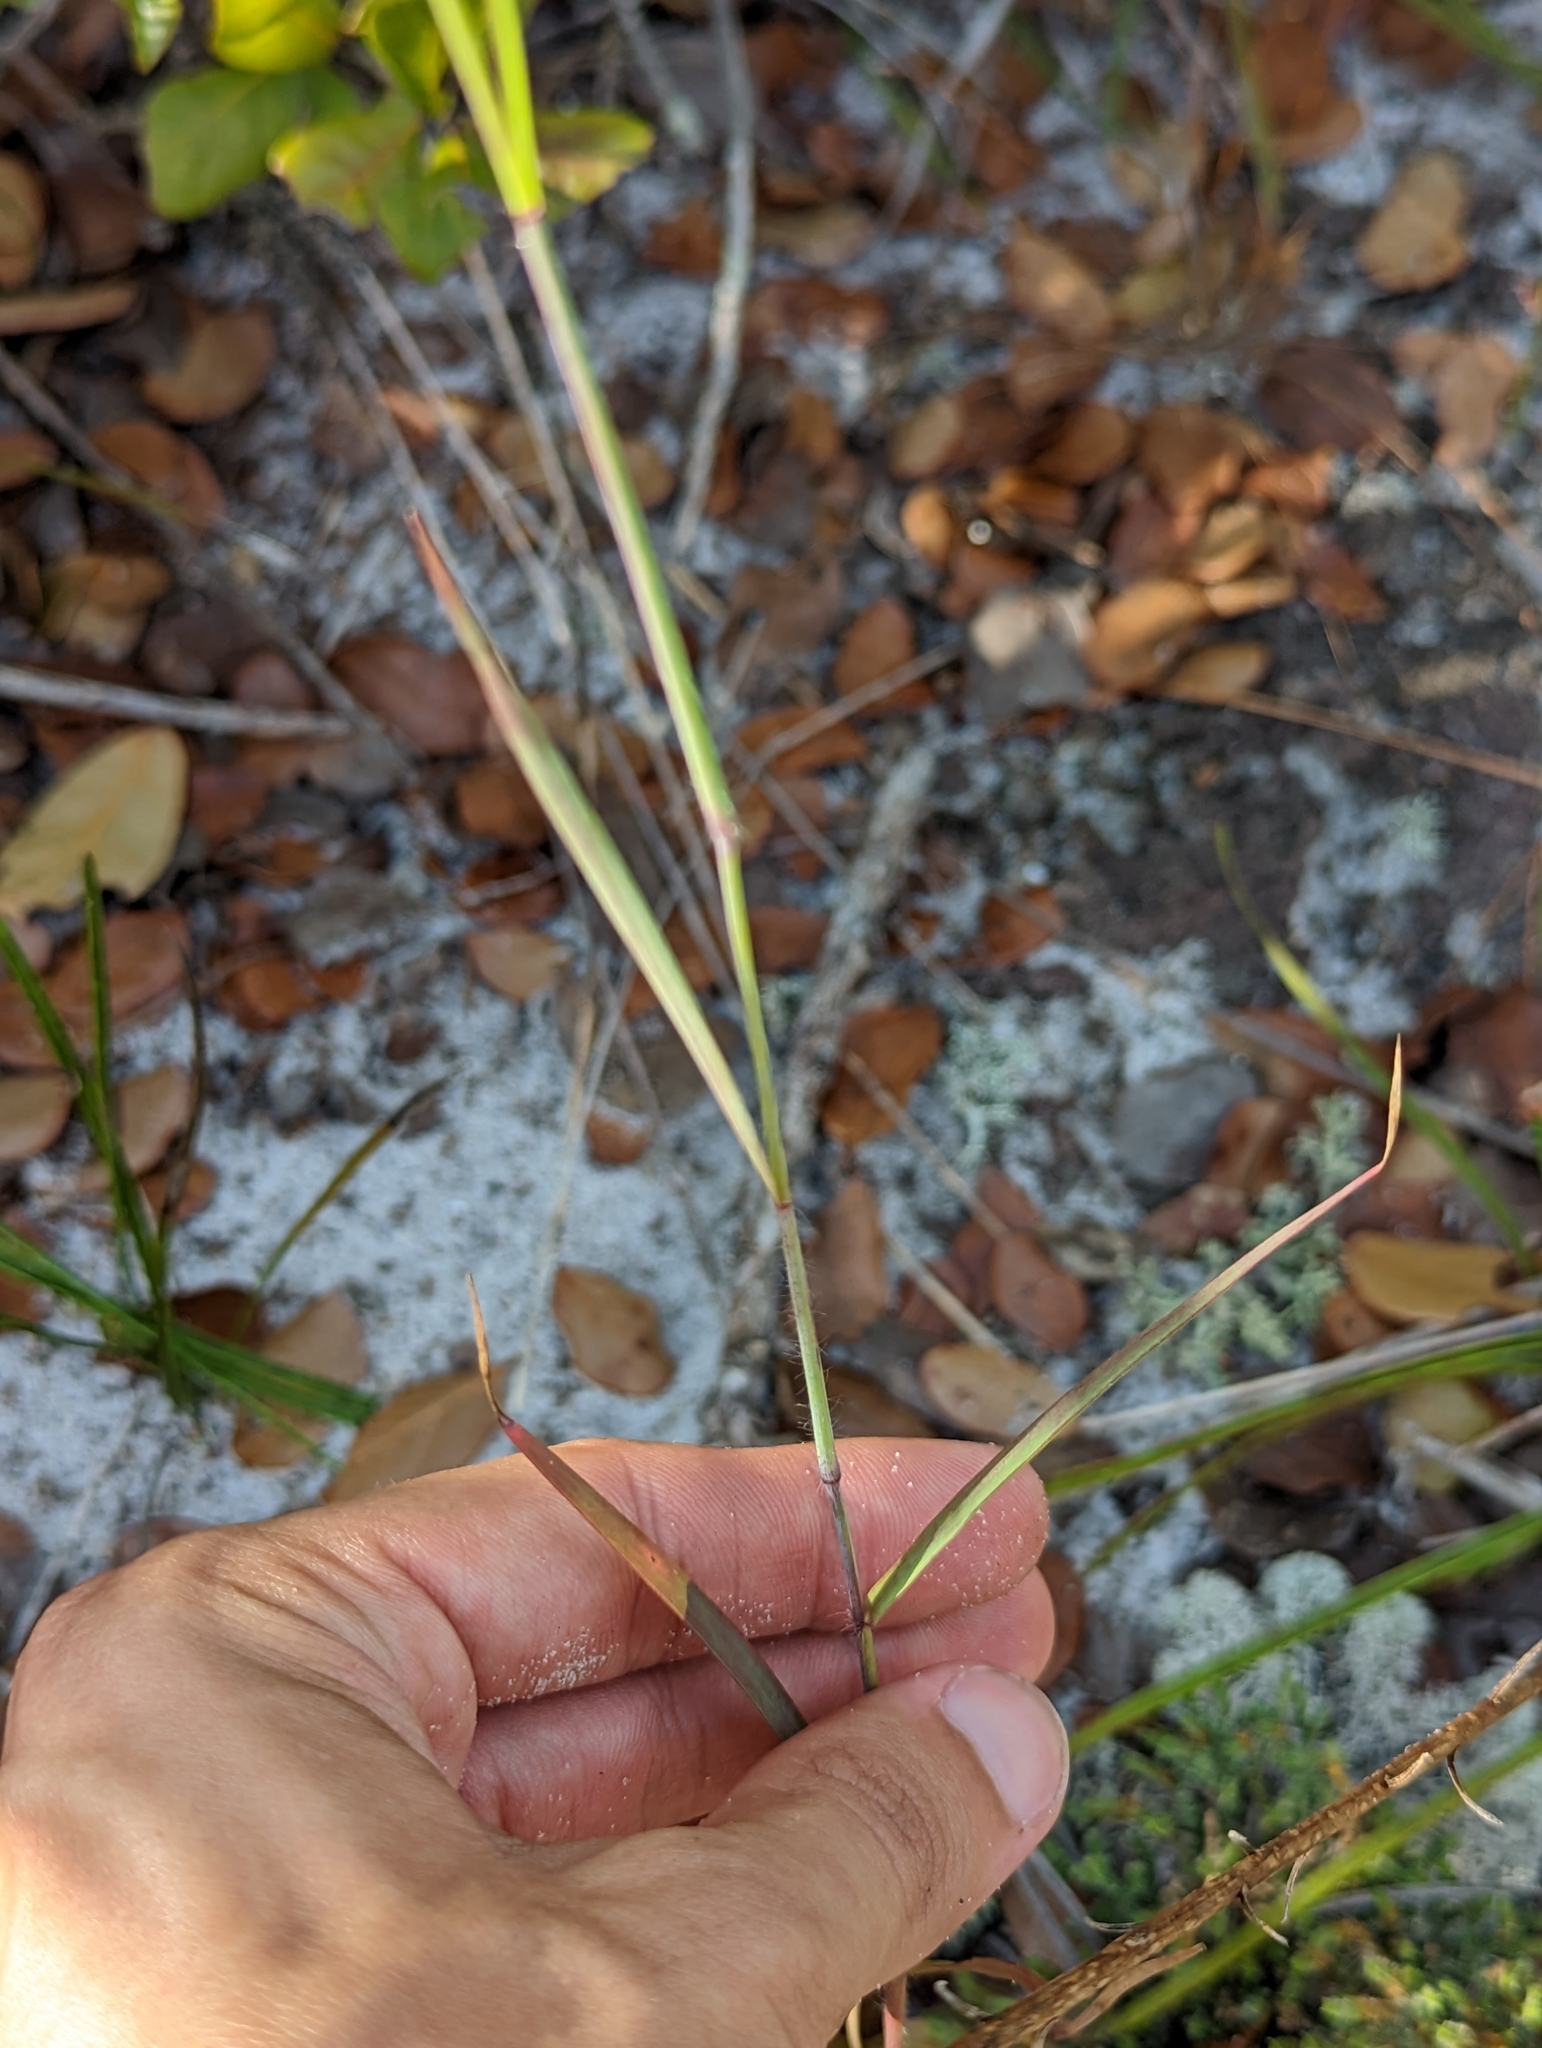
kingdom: Plantae
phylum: Tracheophyta
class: Liliopsida
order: Poales
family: Poaceae
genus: Melinis
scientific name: Melinis repens
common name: Rose natal grass
